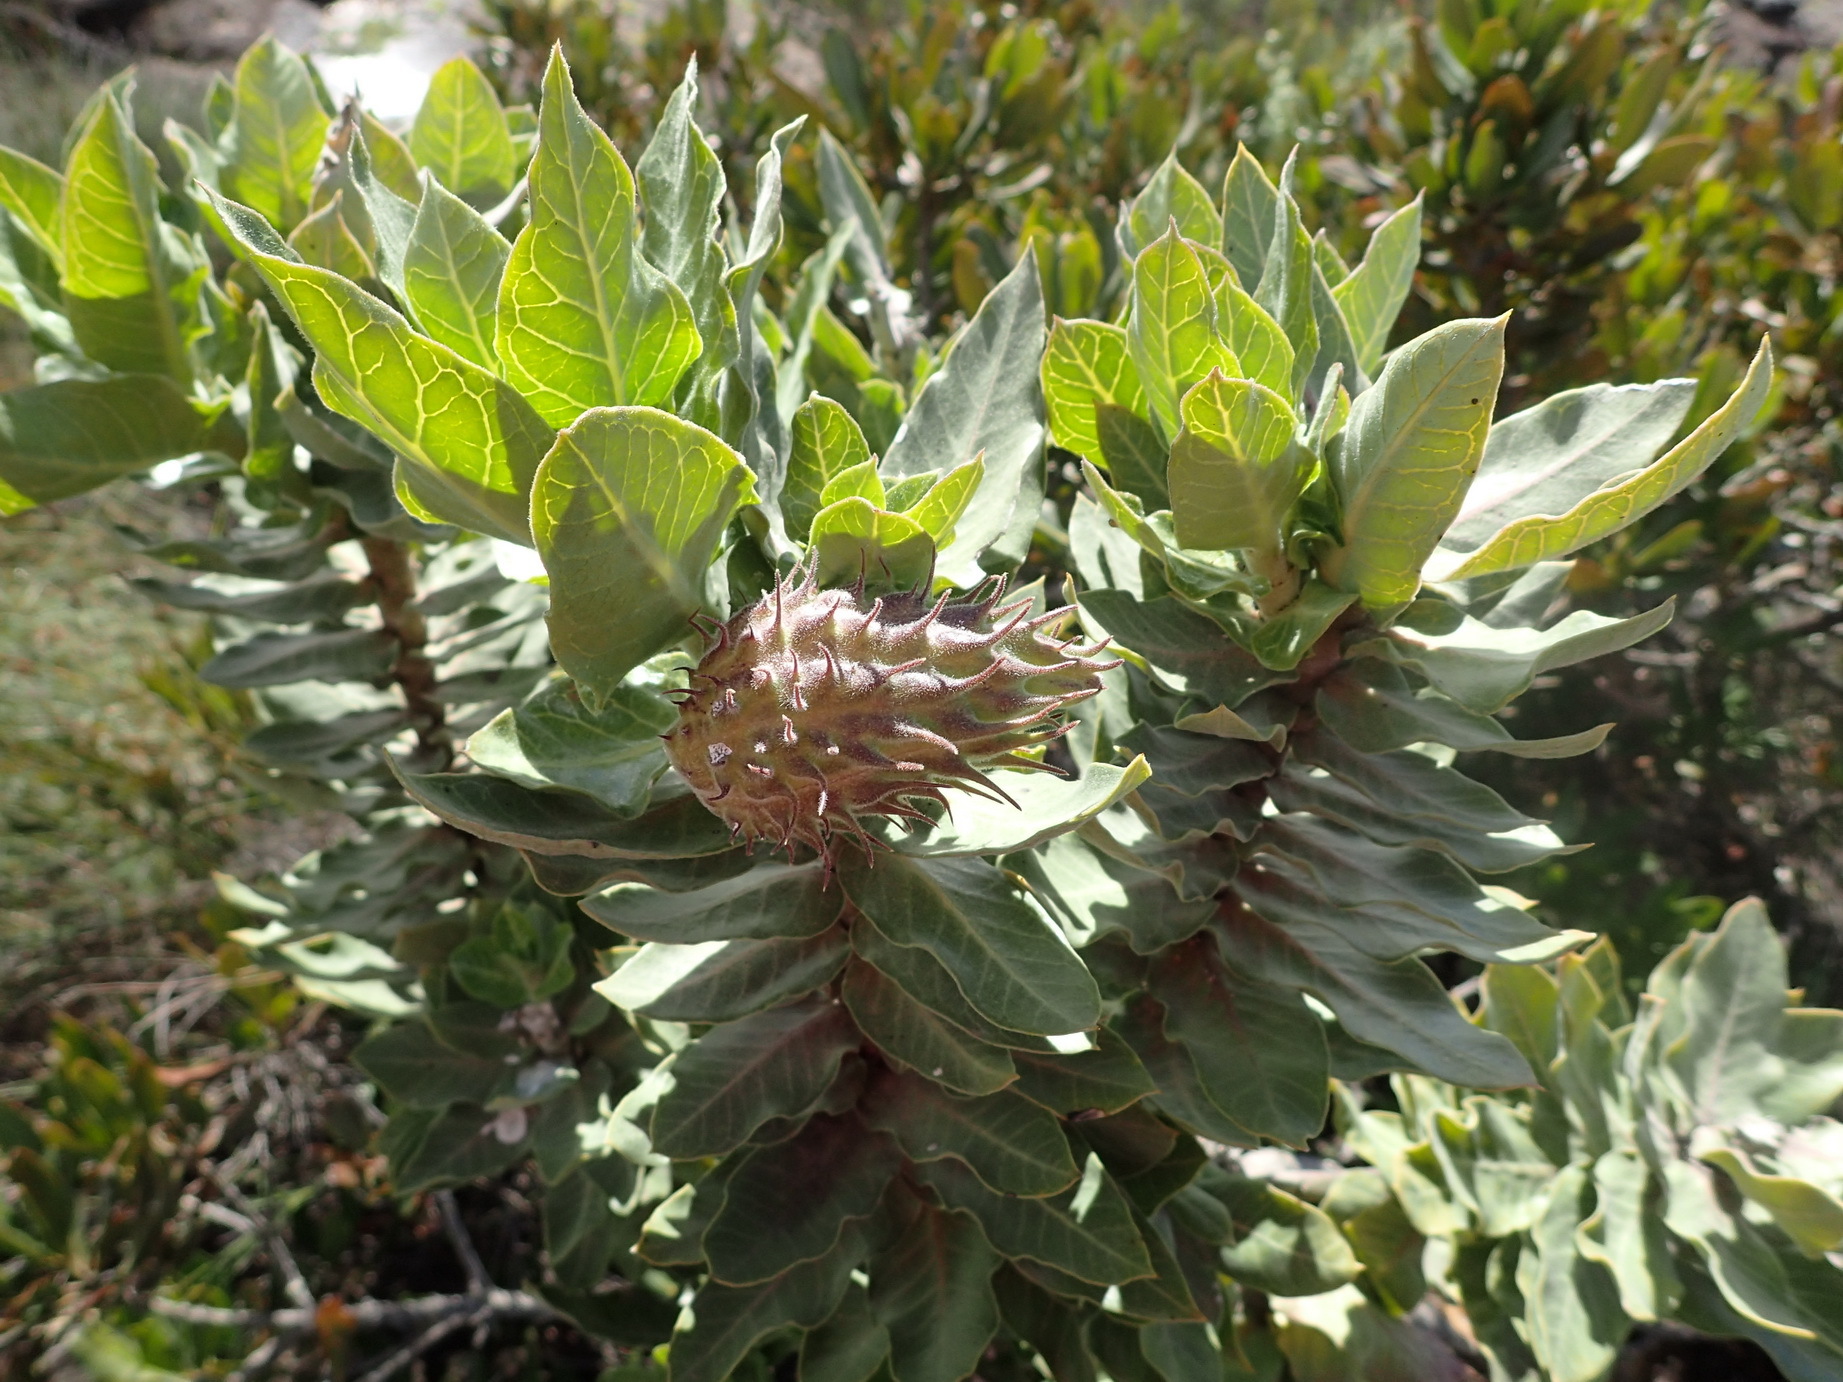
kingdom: Plantae
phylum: Tracheophyta
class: Magnoliopsida
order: Gentianales
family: Apocynaceae
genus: Gomphocarpus
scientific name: Gomphocarpus cancellatus
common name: Wild cotton
